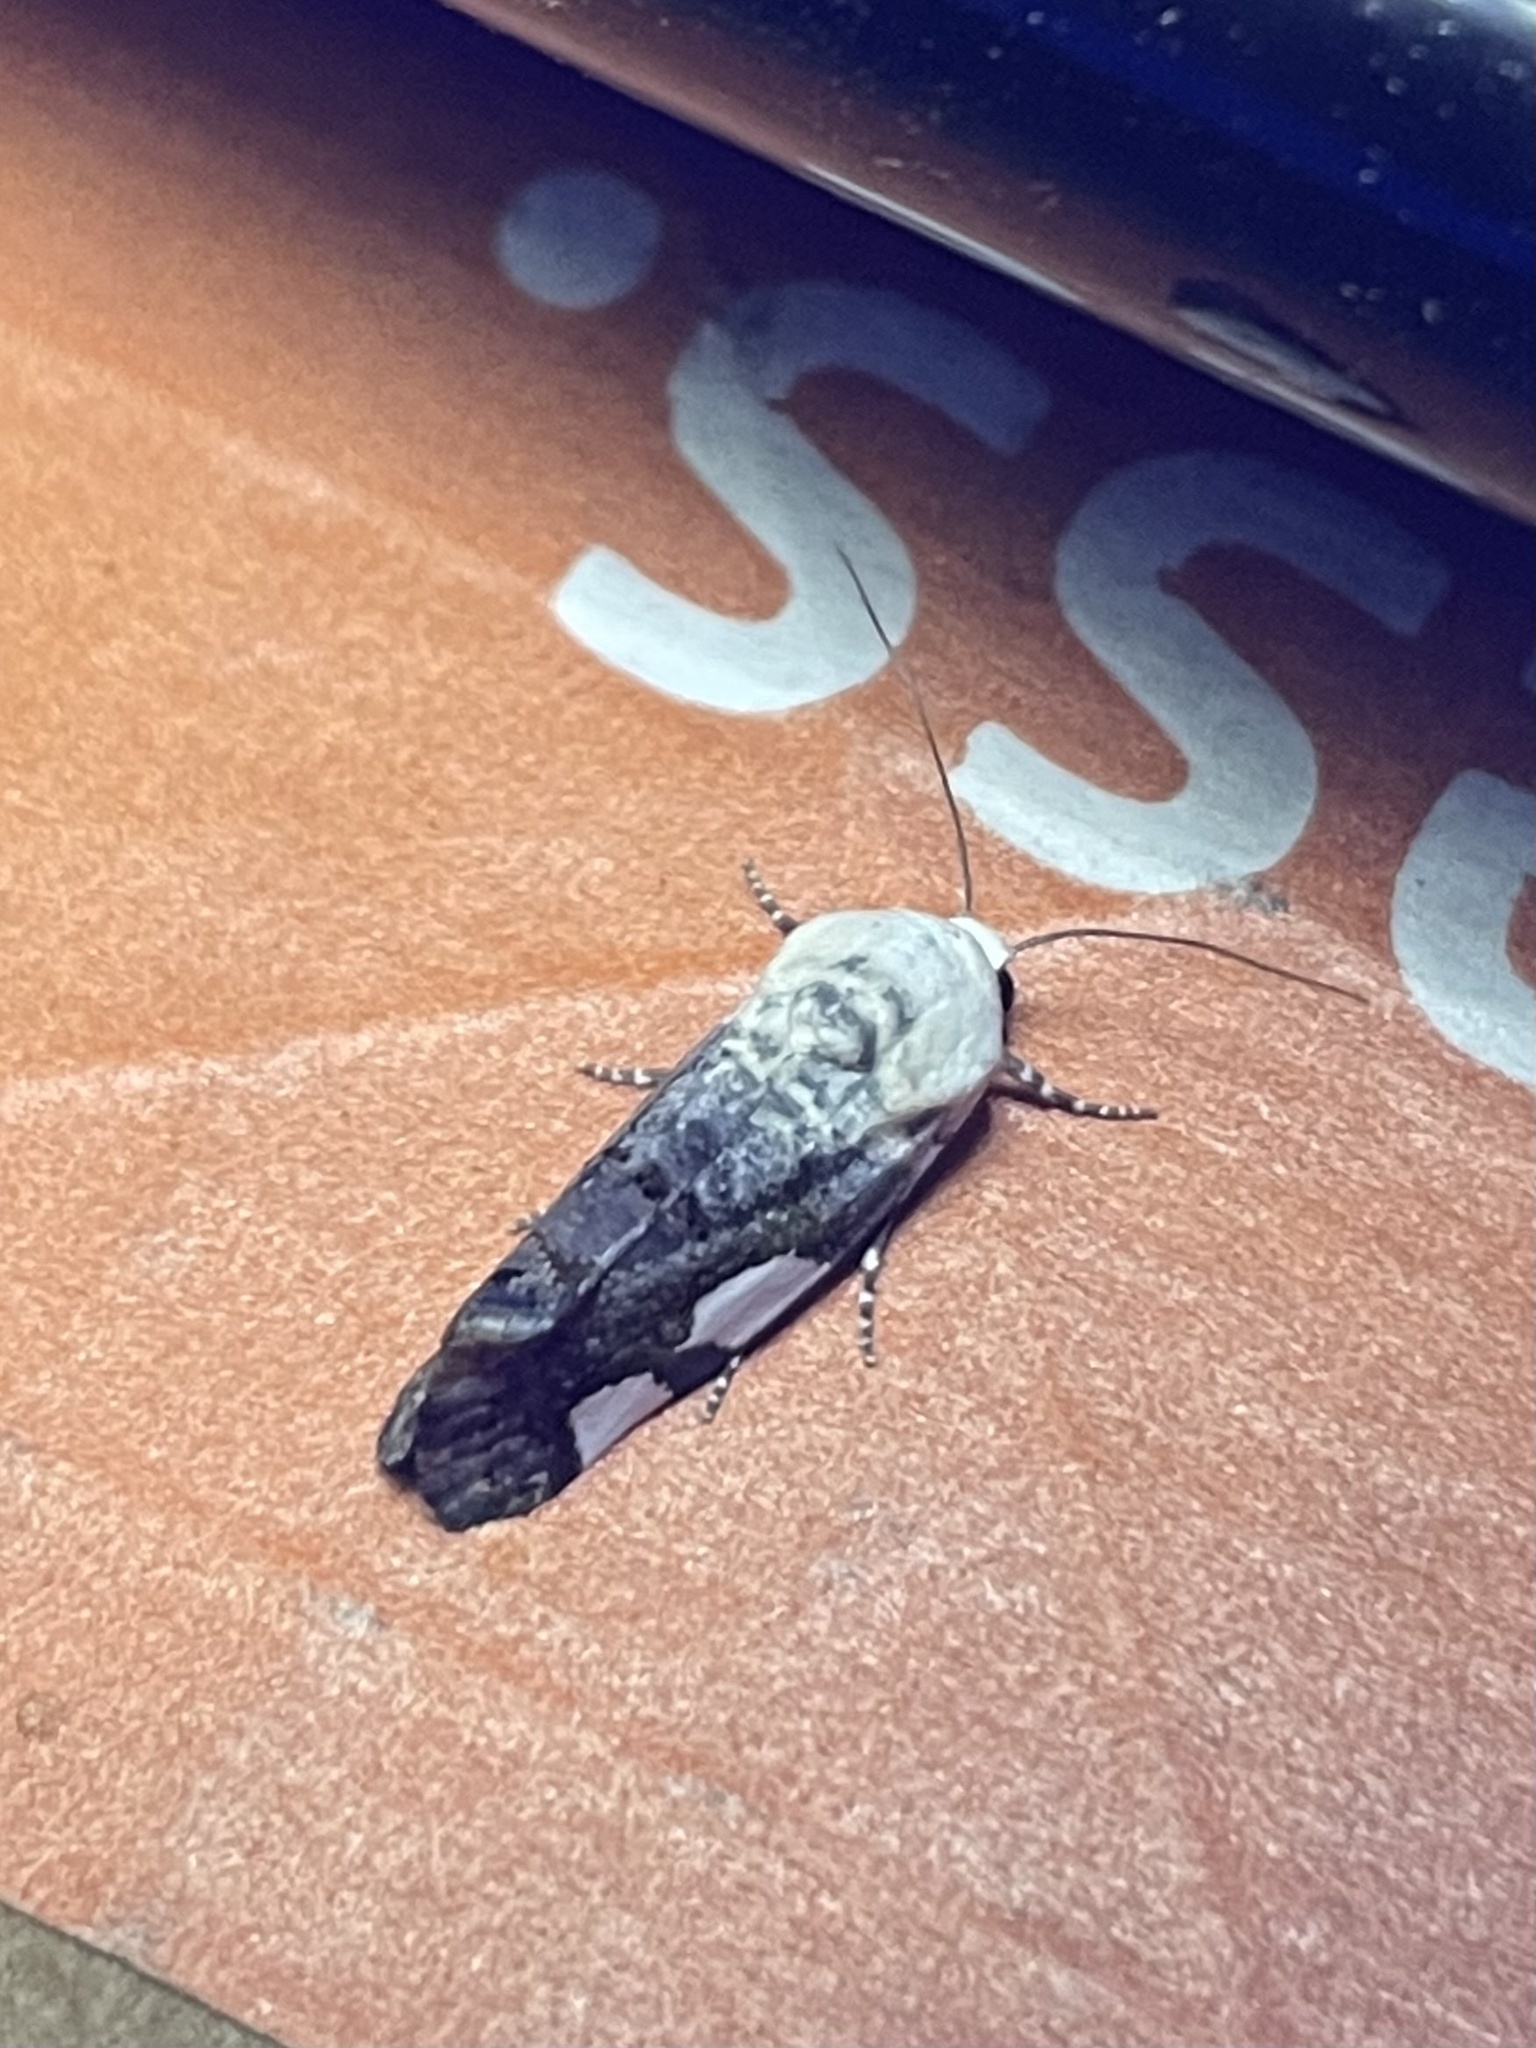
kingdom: Animalia
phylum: Arthropoda
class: Insecta
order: Lepidoptera
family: Noctuidae
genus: Acontia
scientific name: Acontia quadriplaga
